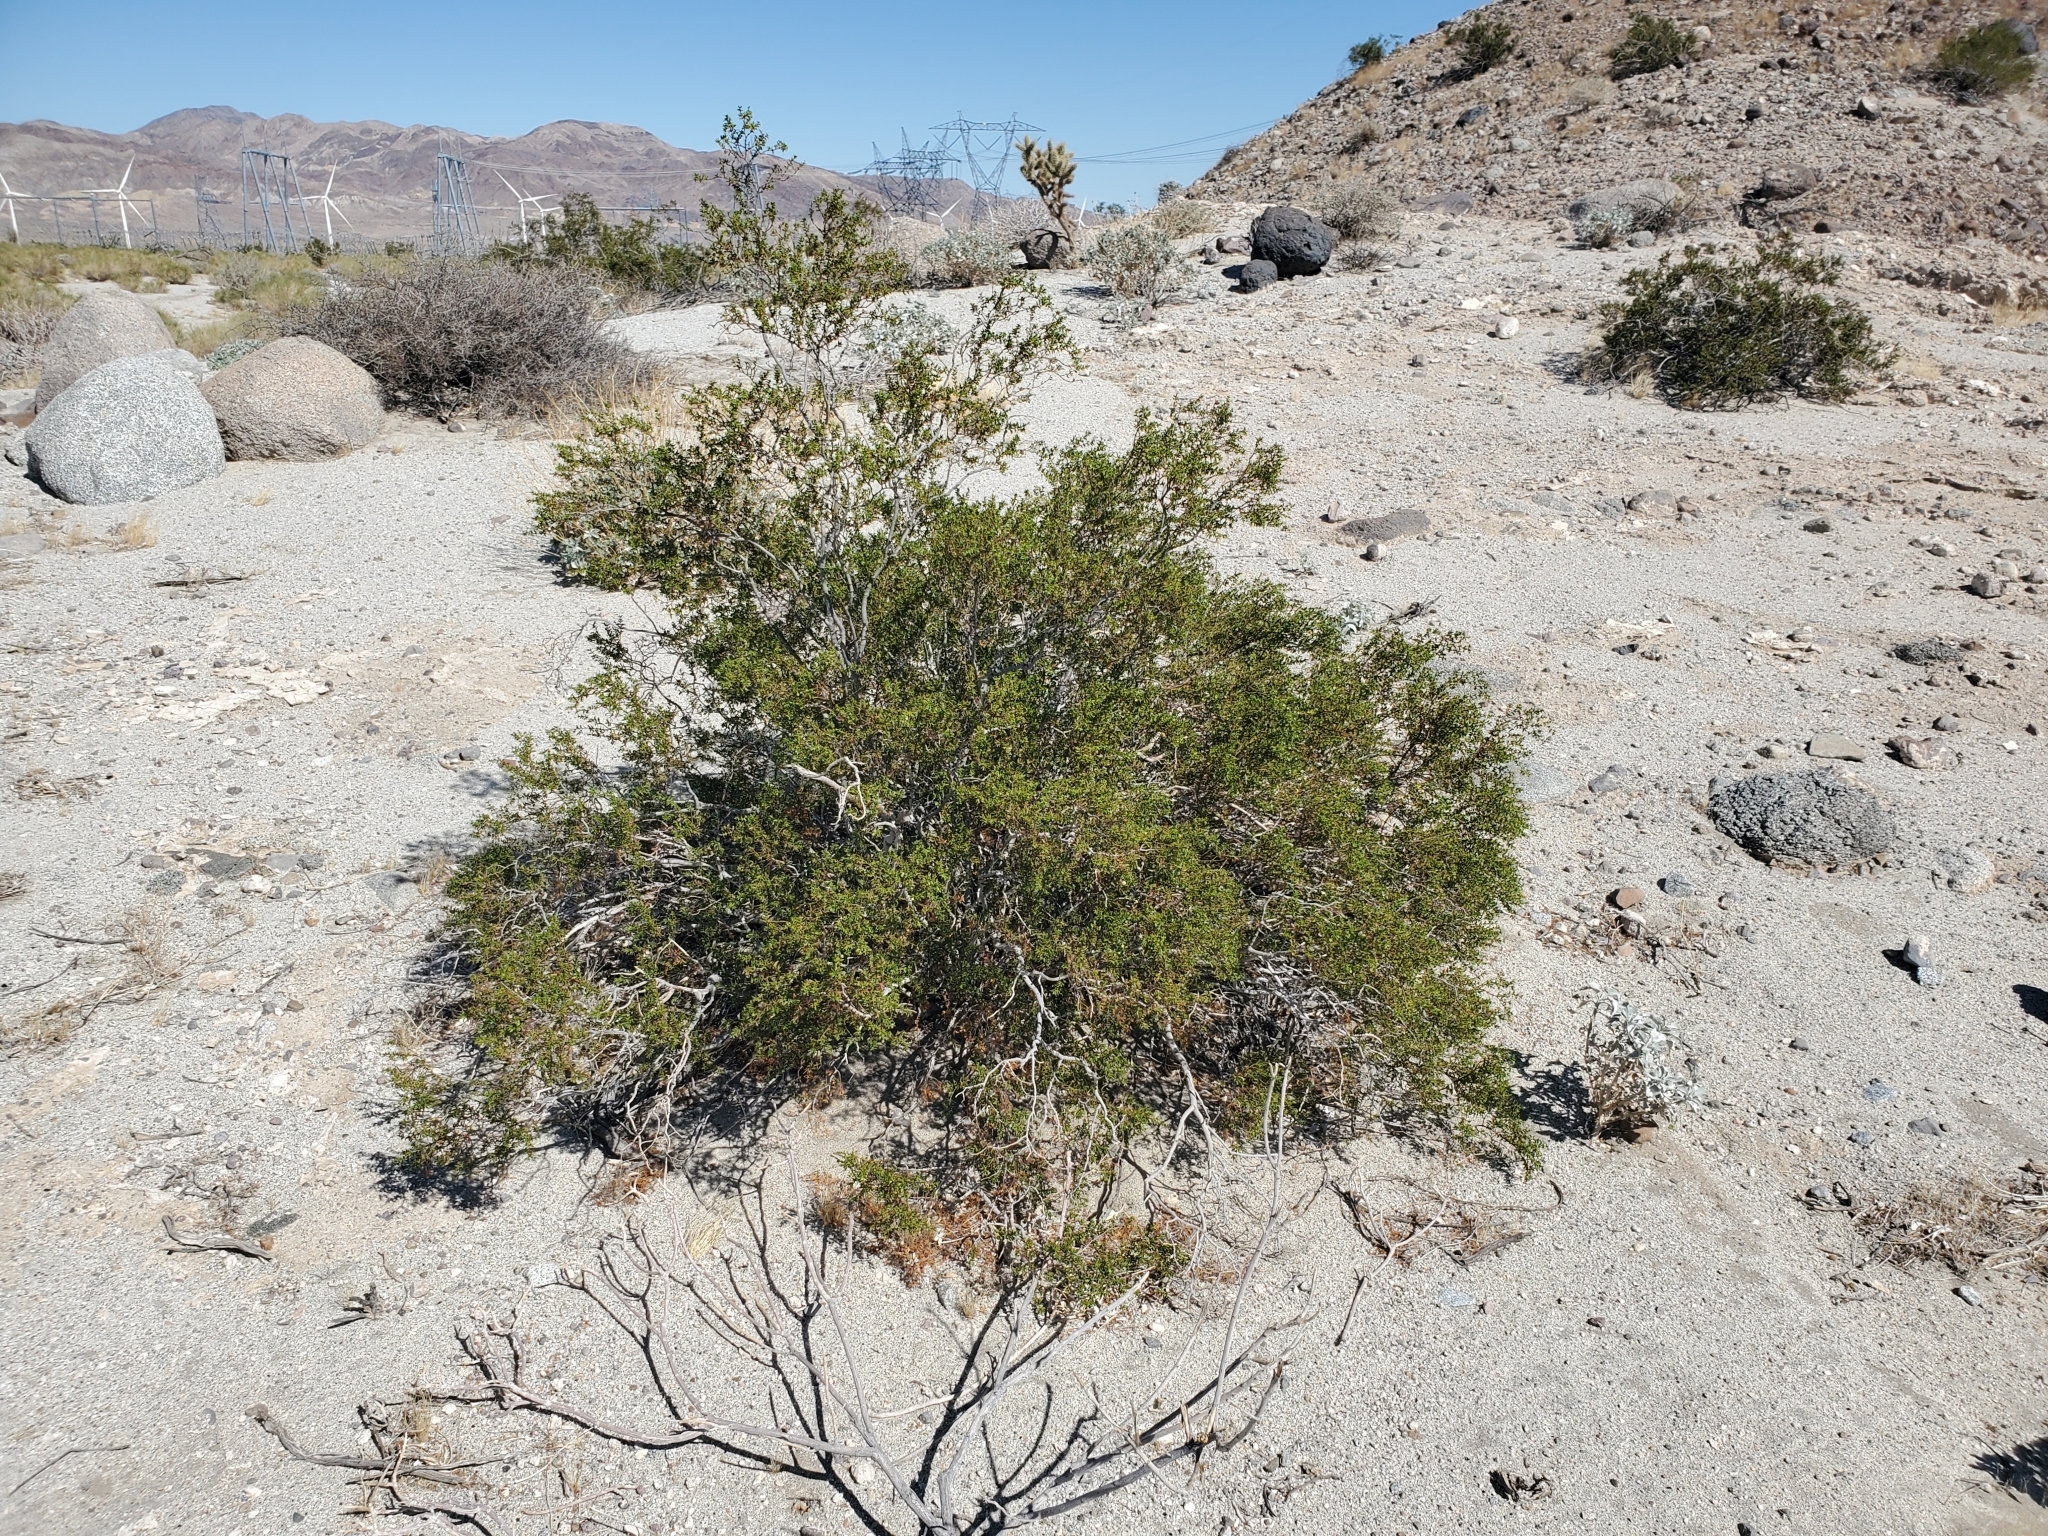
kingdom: Plantae
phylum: Tracheophyta
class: Magnoliopsida
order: Zygophyllales
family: Zygophyllaceae
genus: Larrea
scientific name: Larrea tridentata
